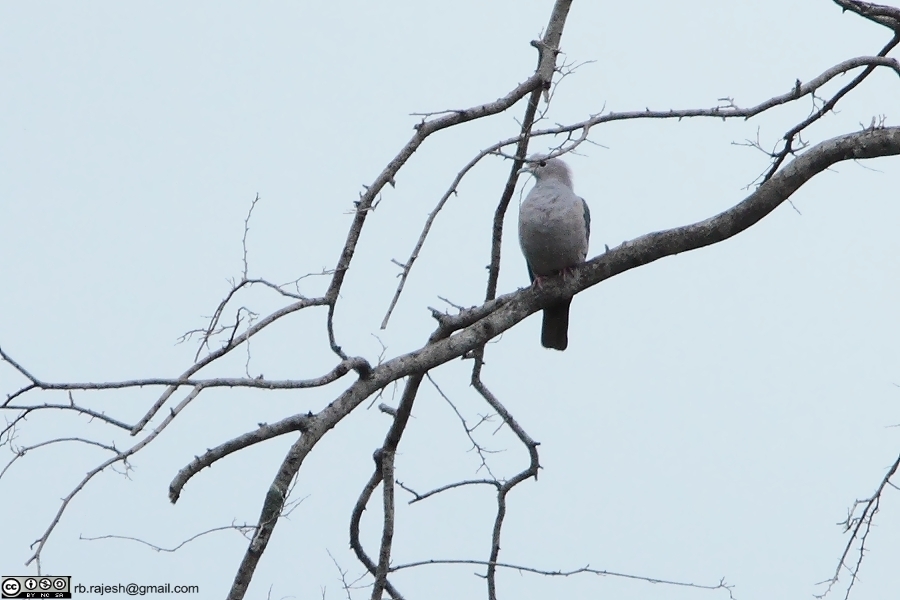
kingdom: Animalia
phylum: Chordata
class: Aves
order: Columbiformes
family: Columbidae
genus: Ducula
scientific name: Ducula aenea
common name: Green imperial pigeon
